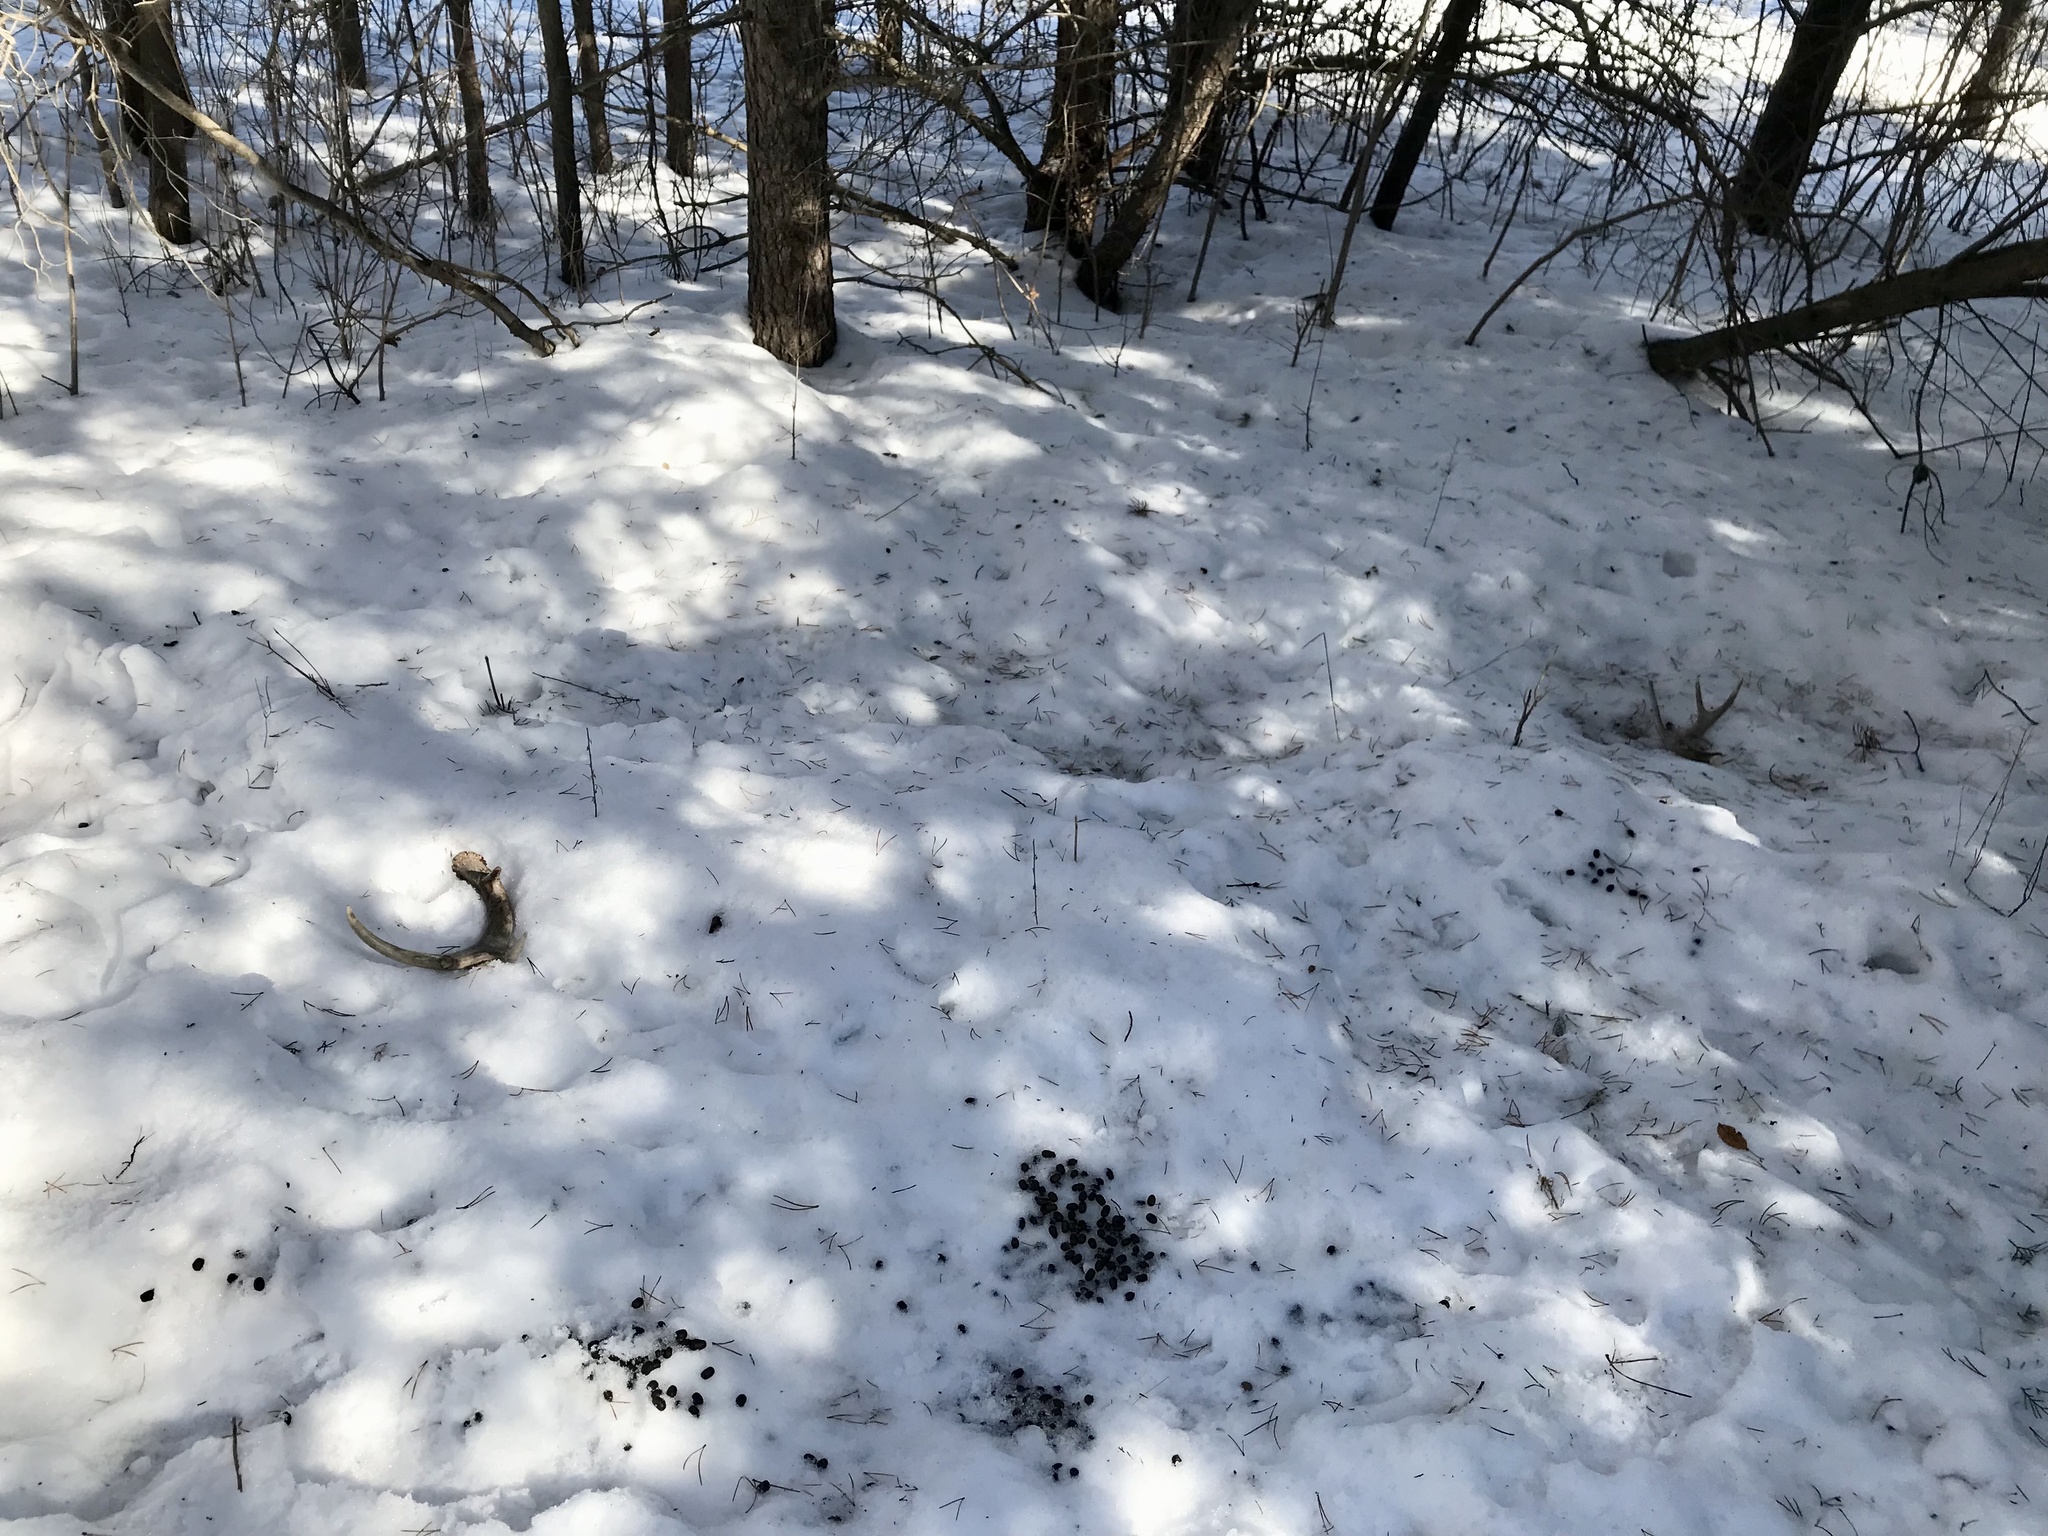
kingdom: Animalia
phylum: Chordata
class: Mammalia
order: Artiodactyla
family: Cervidae
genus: Odocoileus
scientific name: Odocoileus virginianus
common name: White-tailed deer
